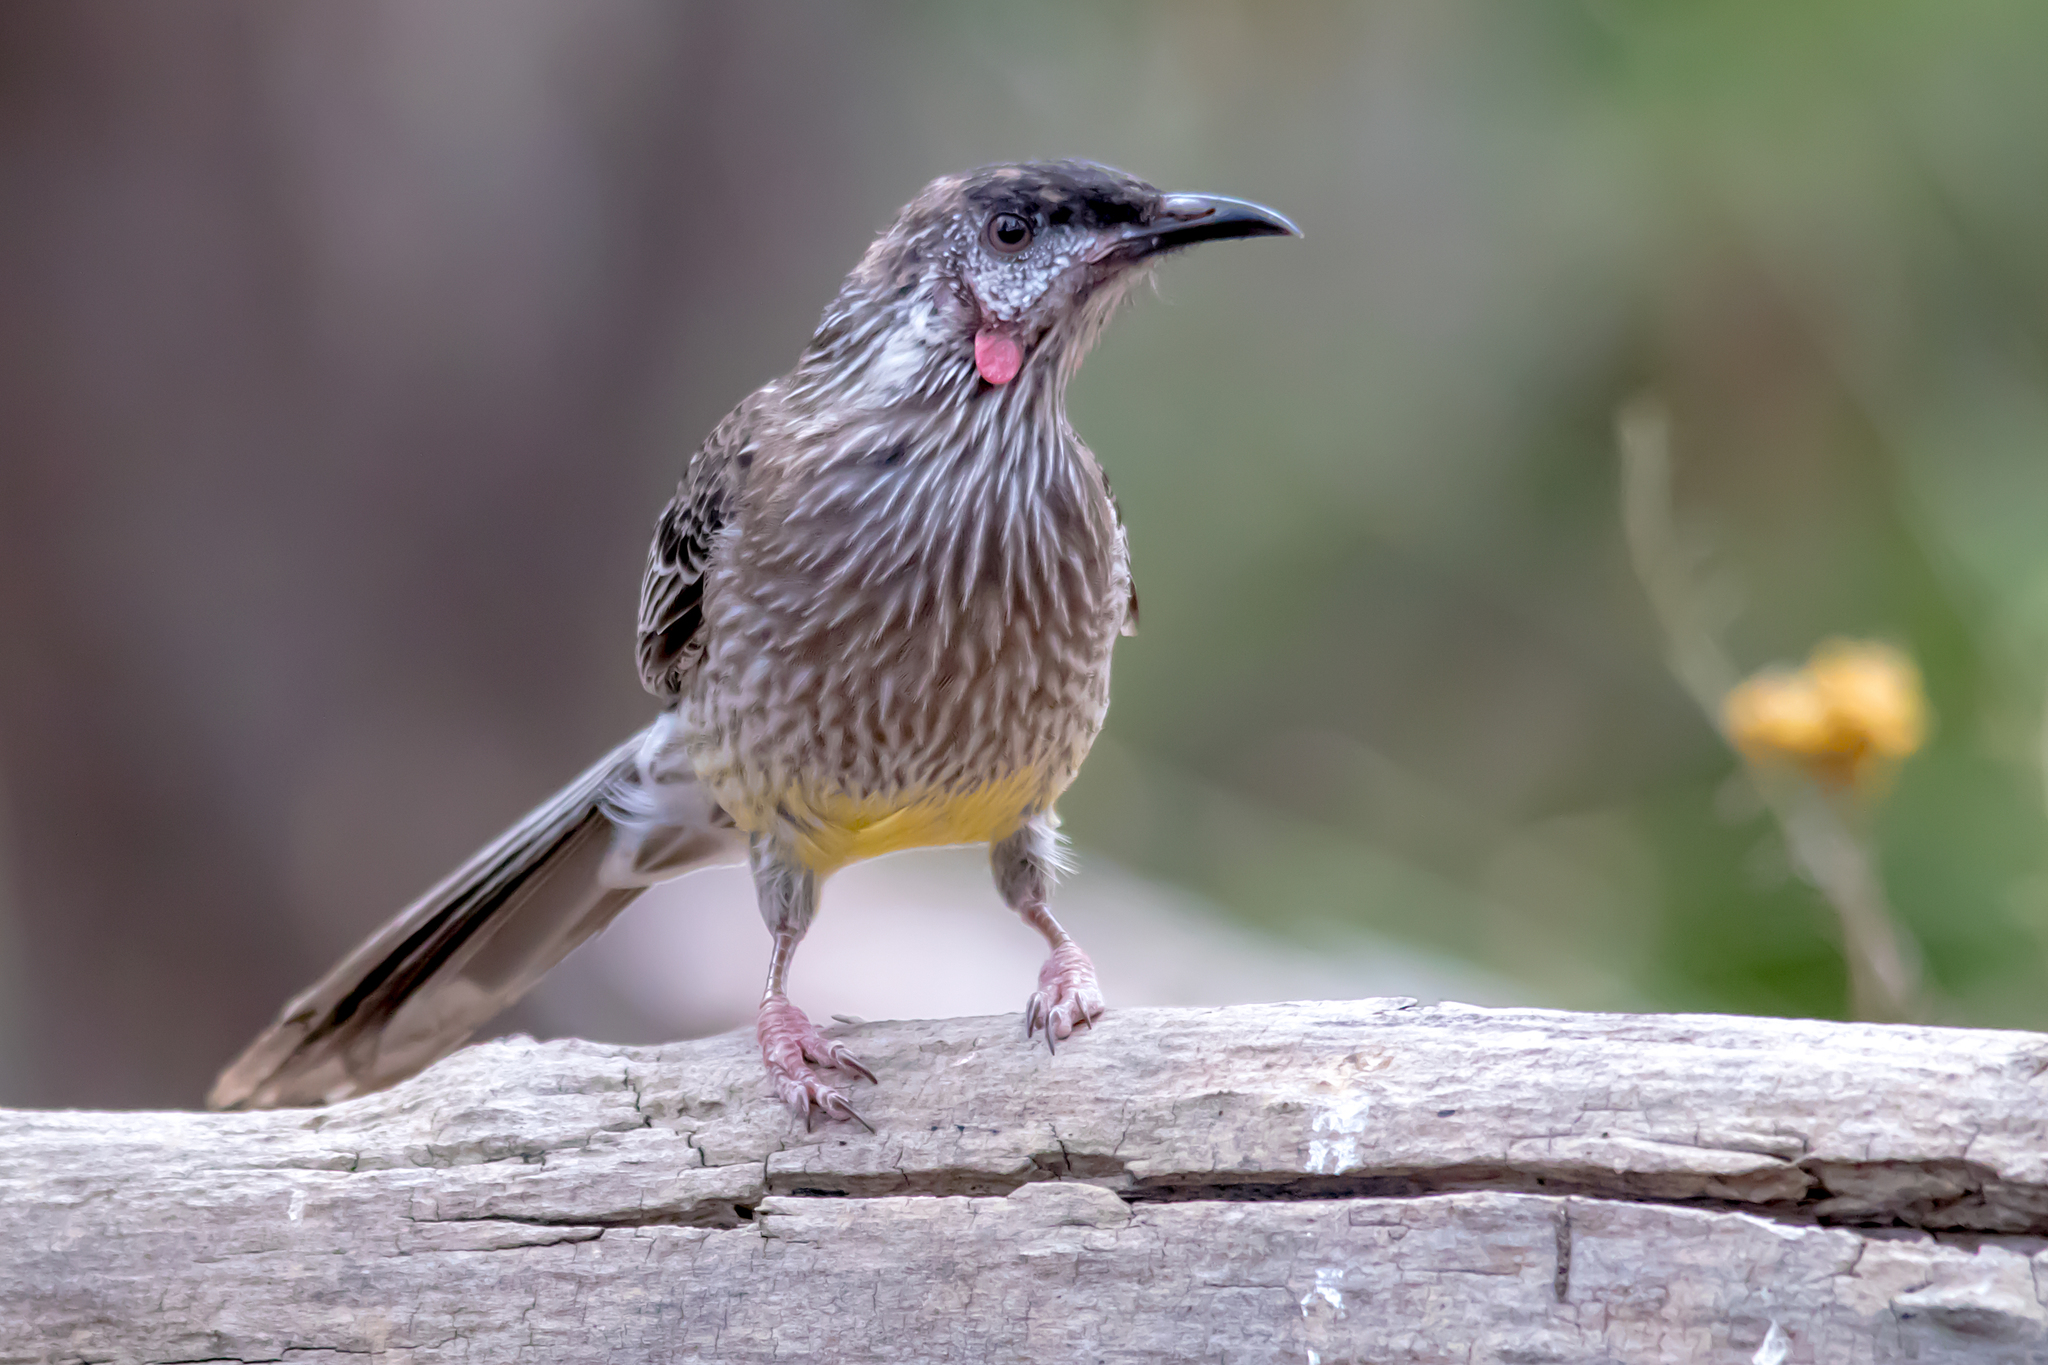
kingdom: Animalia
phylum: Chordata
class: Aves
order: Passeriformes
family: Meliphagidae
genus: Anthochaera
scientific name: Anthochaera carunculata
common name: Red wattlebird
